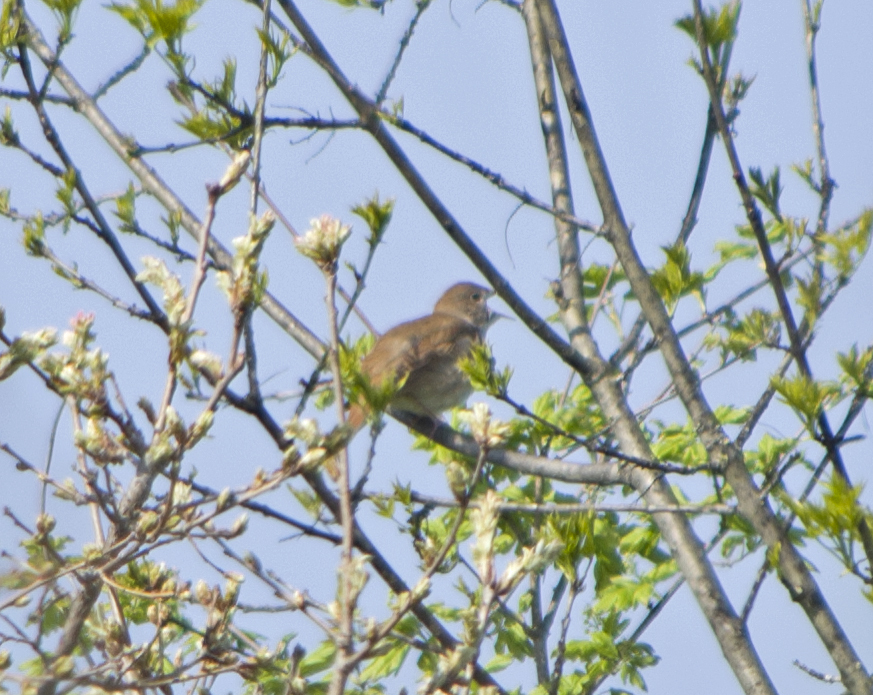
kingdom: Animalia
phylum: Chordata
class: Aves
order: Passeriformes
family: Muscicapidae
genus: Luscinia
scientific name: Luscinia megarhynchos
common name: Common nightingale
